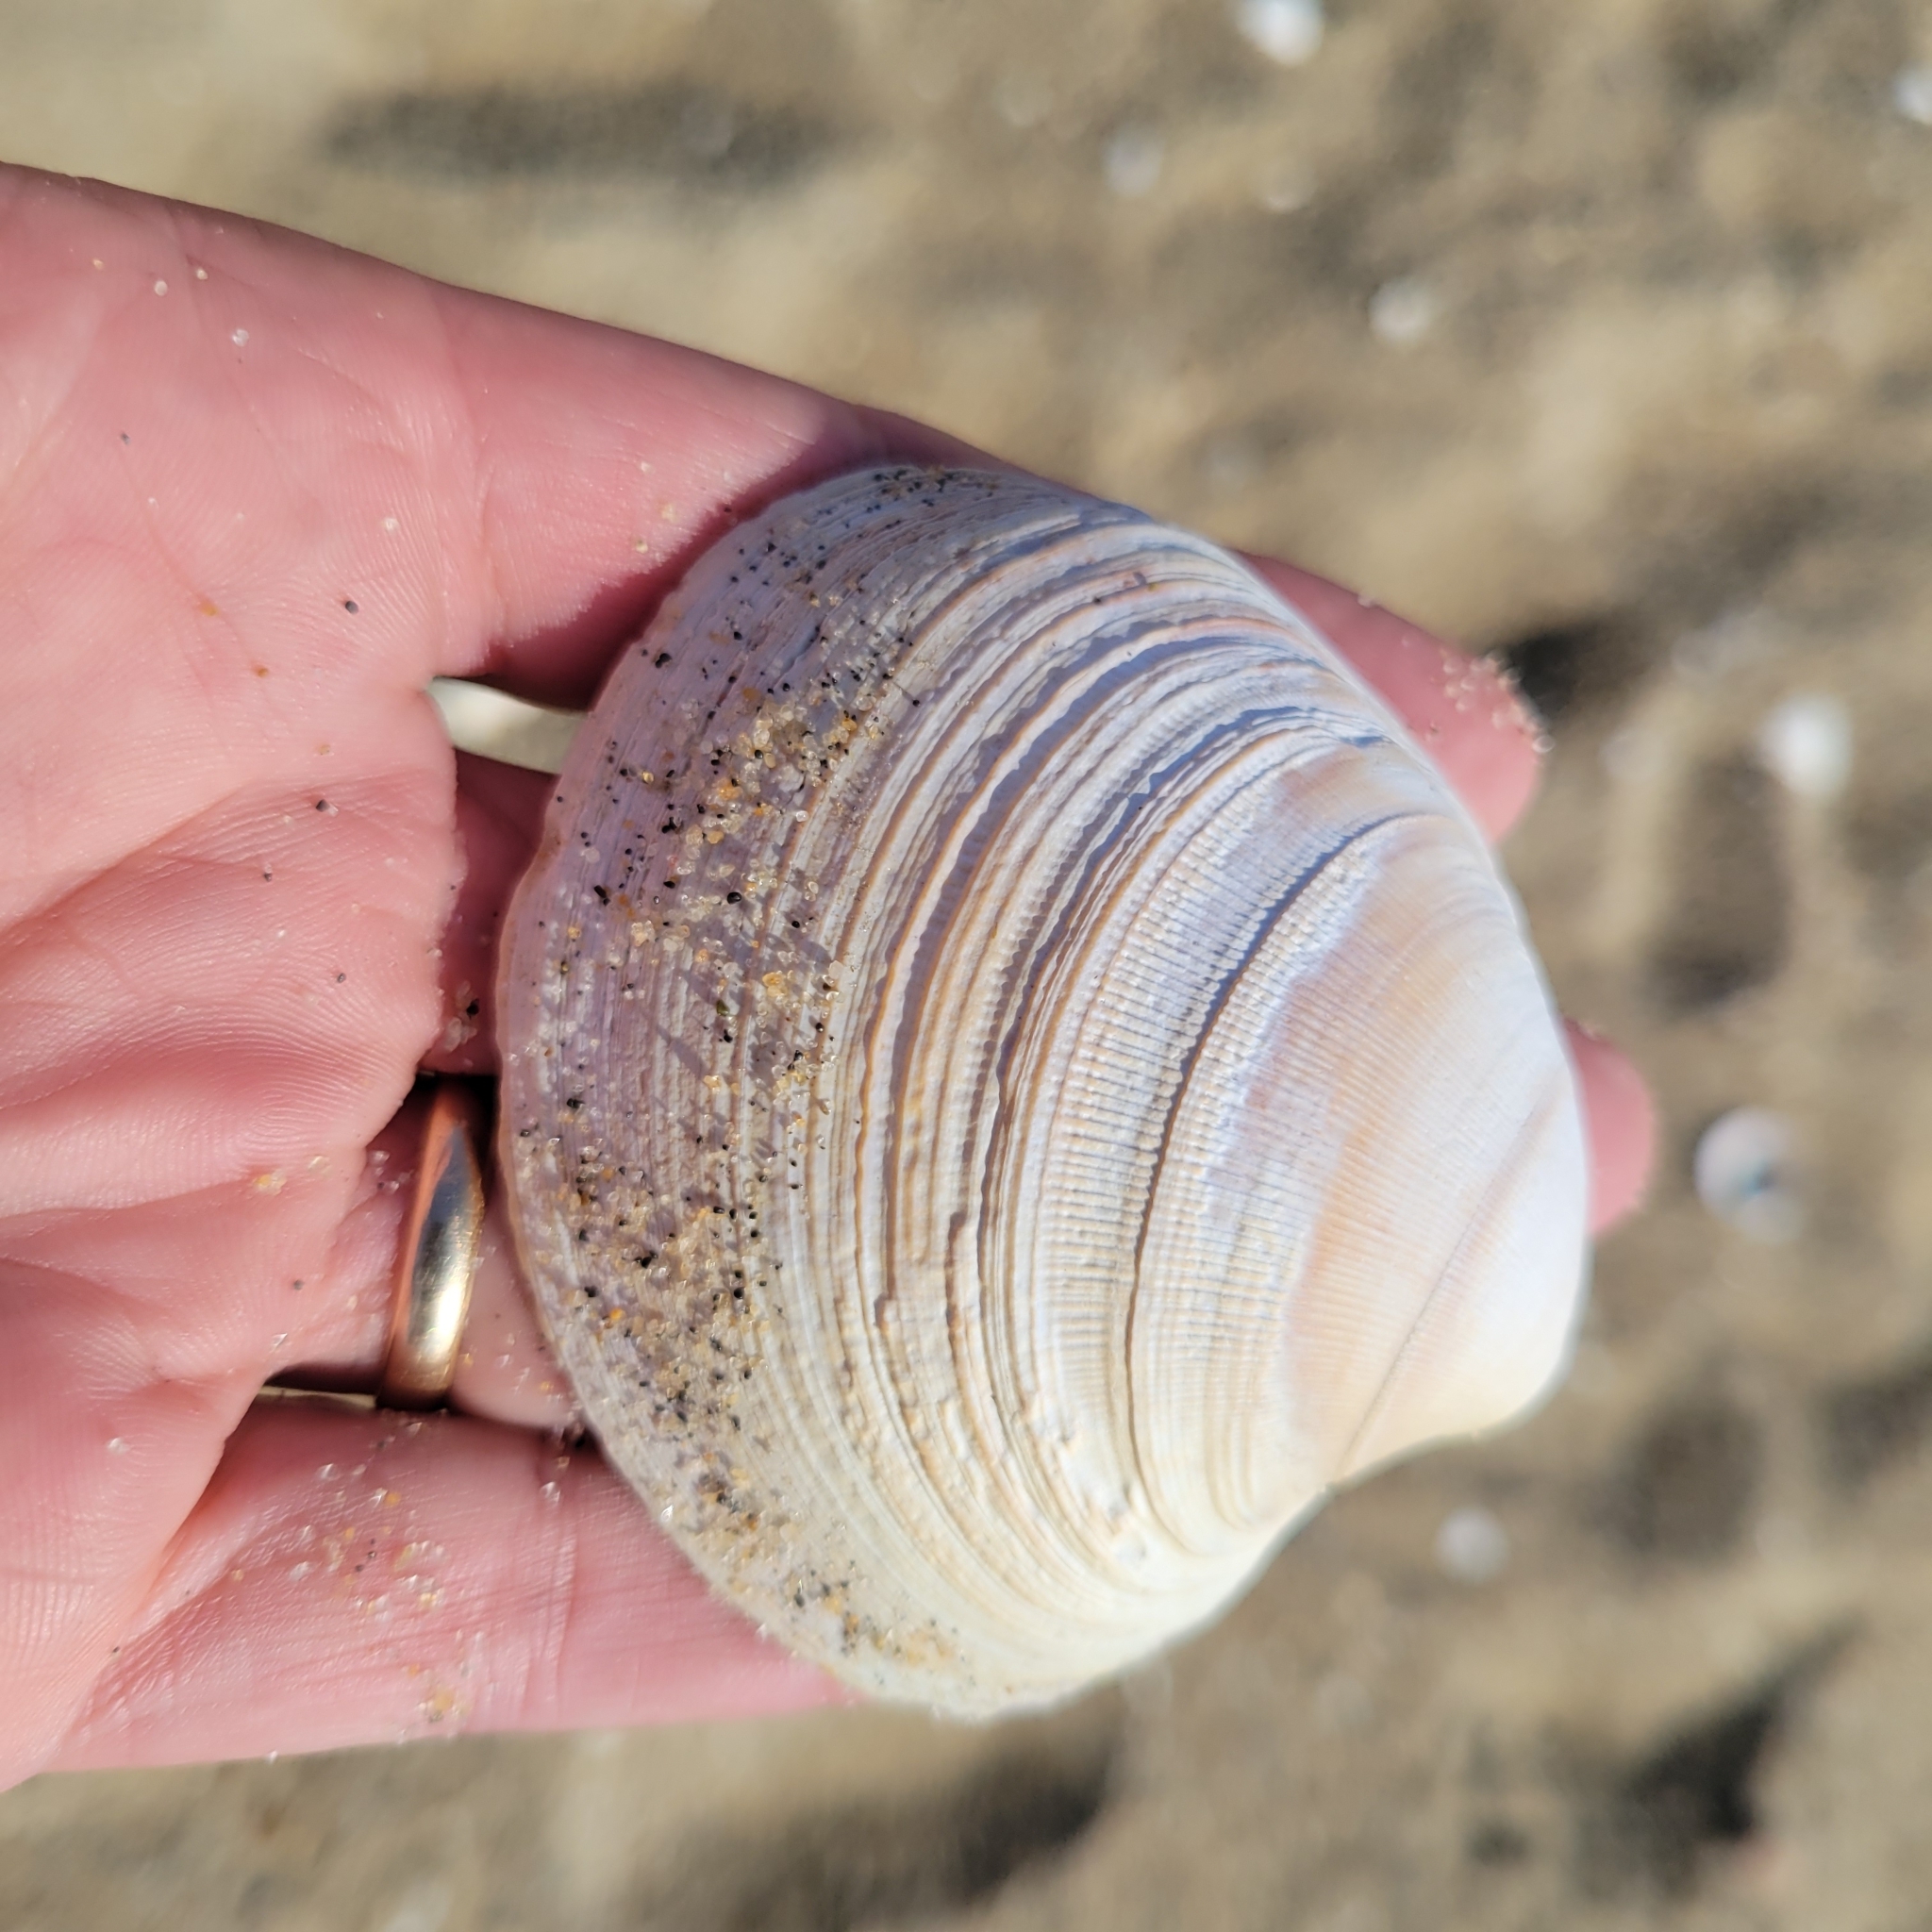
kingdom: Animalia
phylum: Mollusca
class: Bivalvia
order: Venerida
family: Mactridae
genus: Spisula
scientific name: Spisula solidissima
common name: Atlantic surf clam
